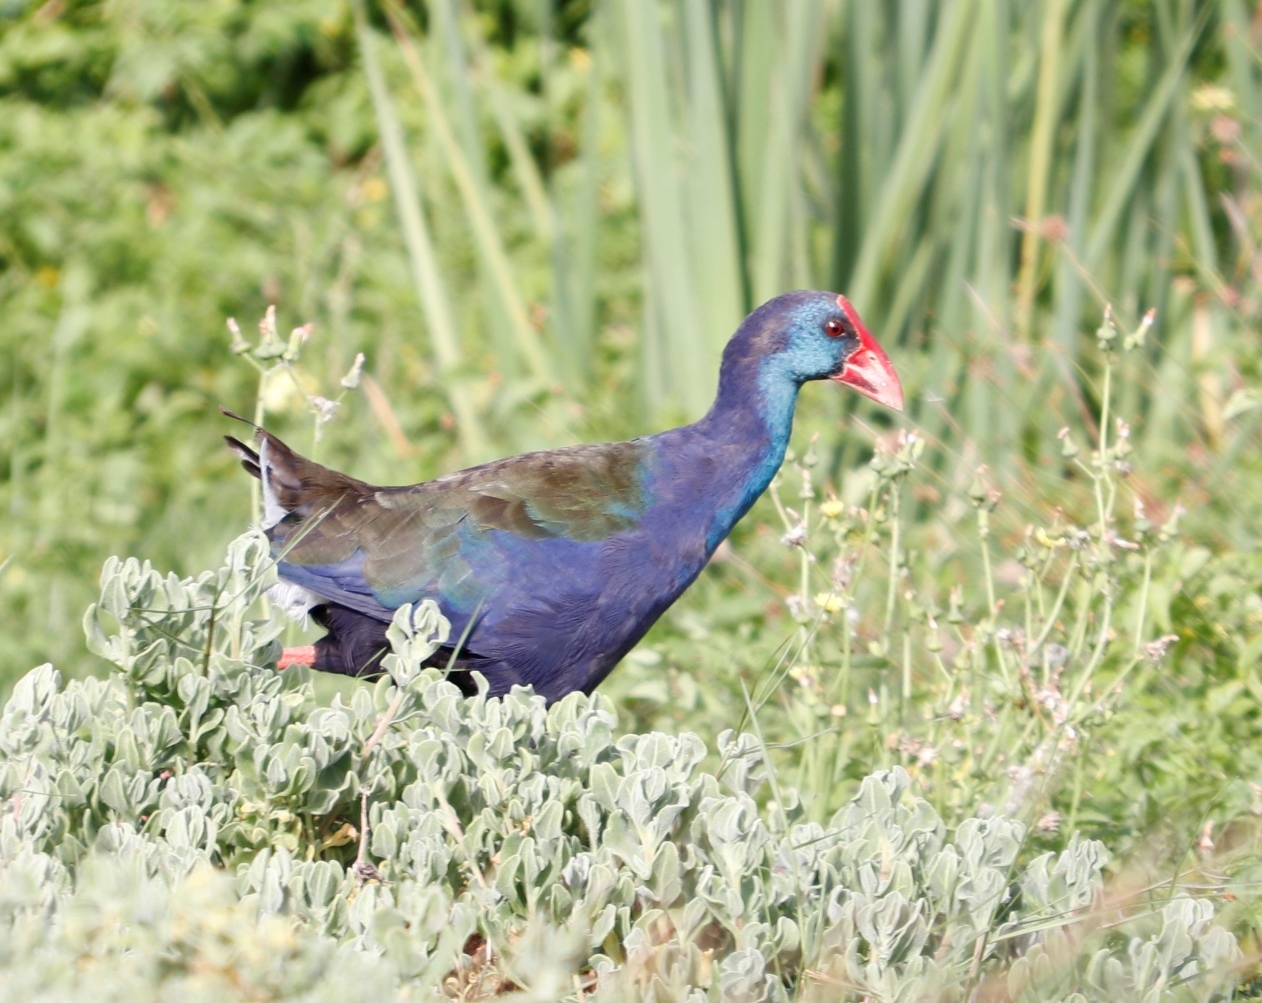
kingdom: Animalia
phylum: Chordata
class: Aves
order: Gruiformes
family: Rallidae
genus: Porphyrio
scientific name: Porphyrio porphyrio
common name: Purple swamphen
